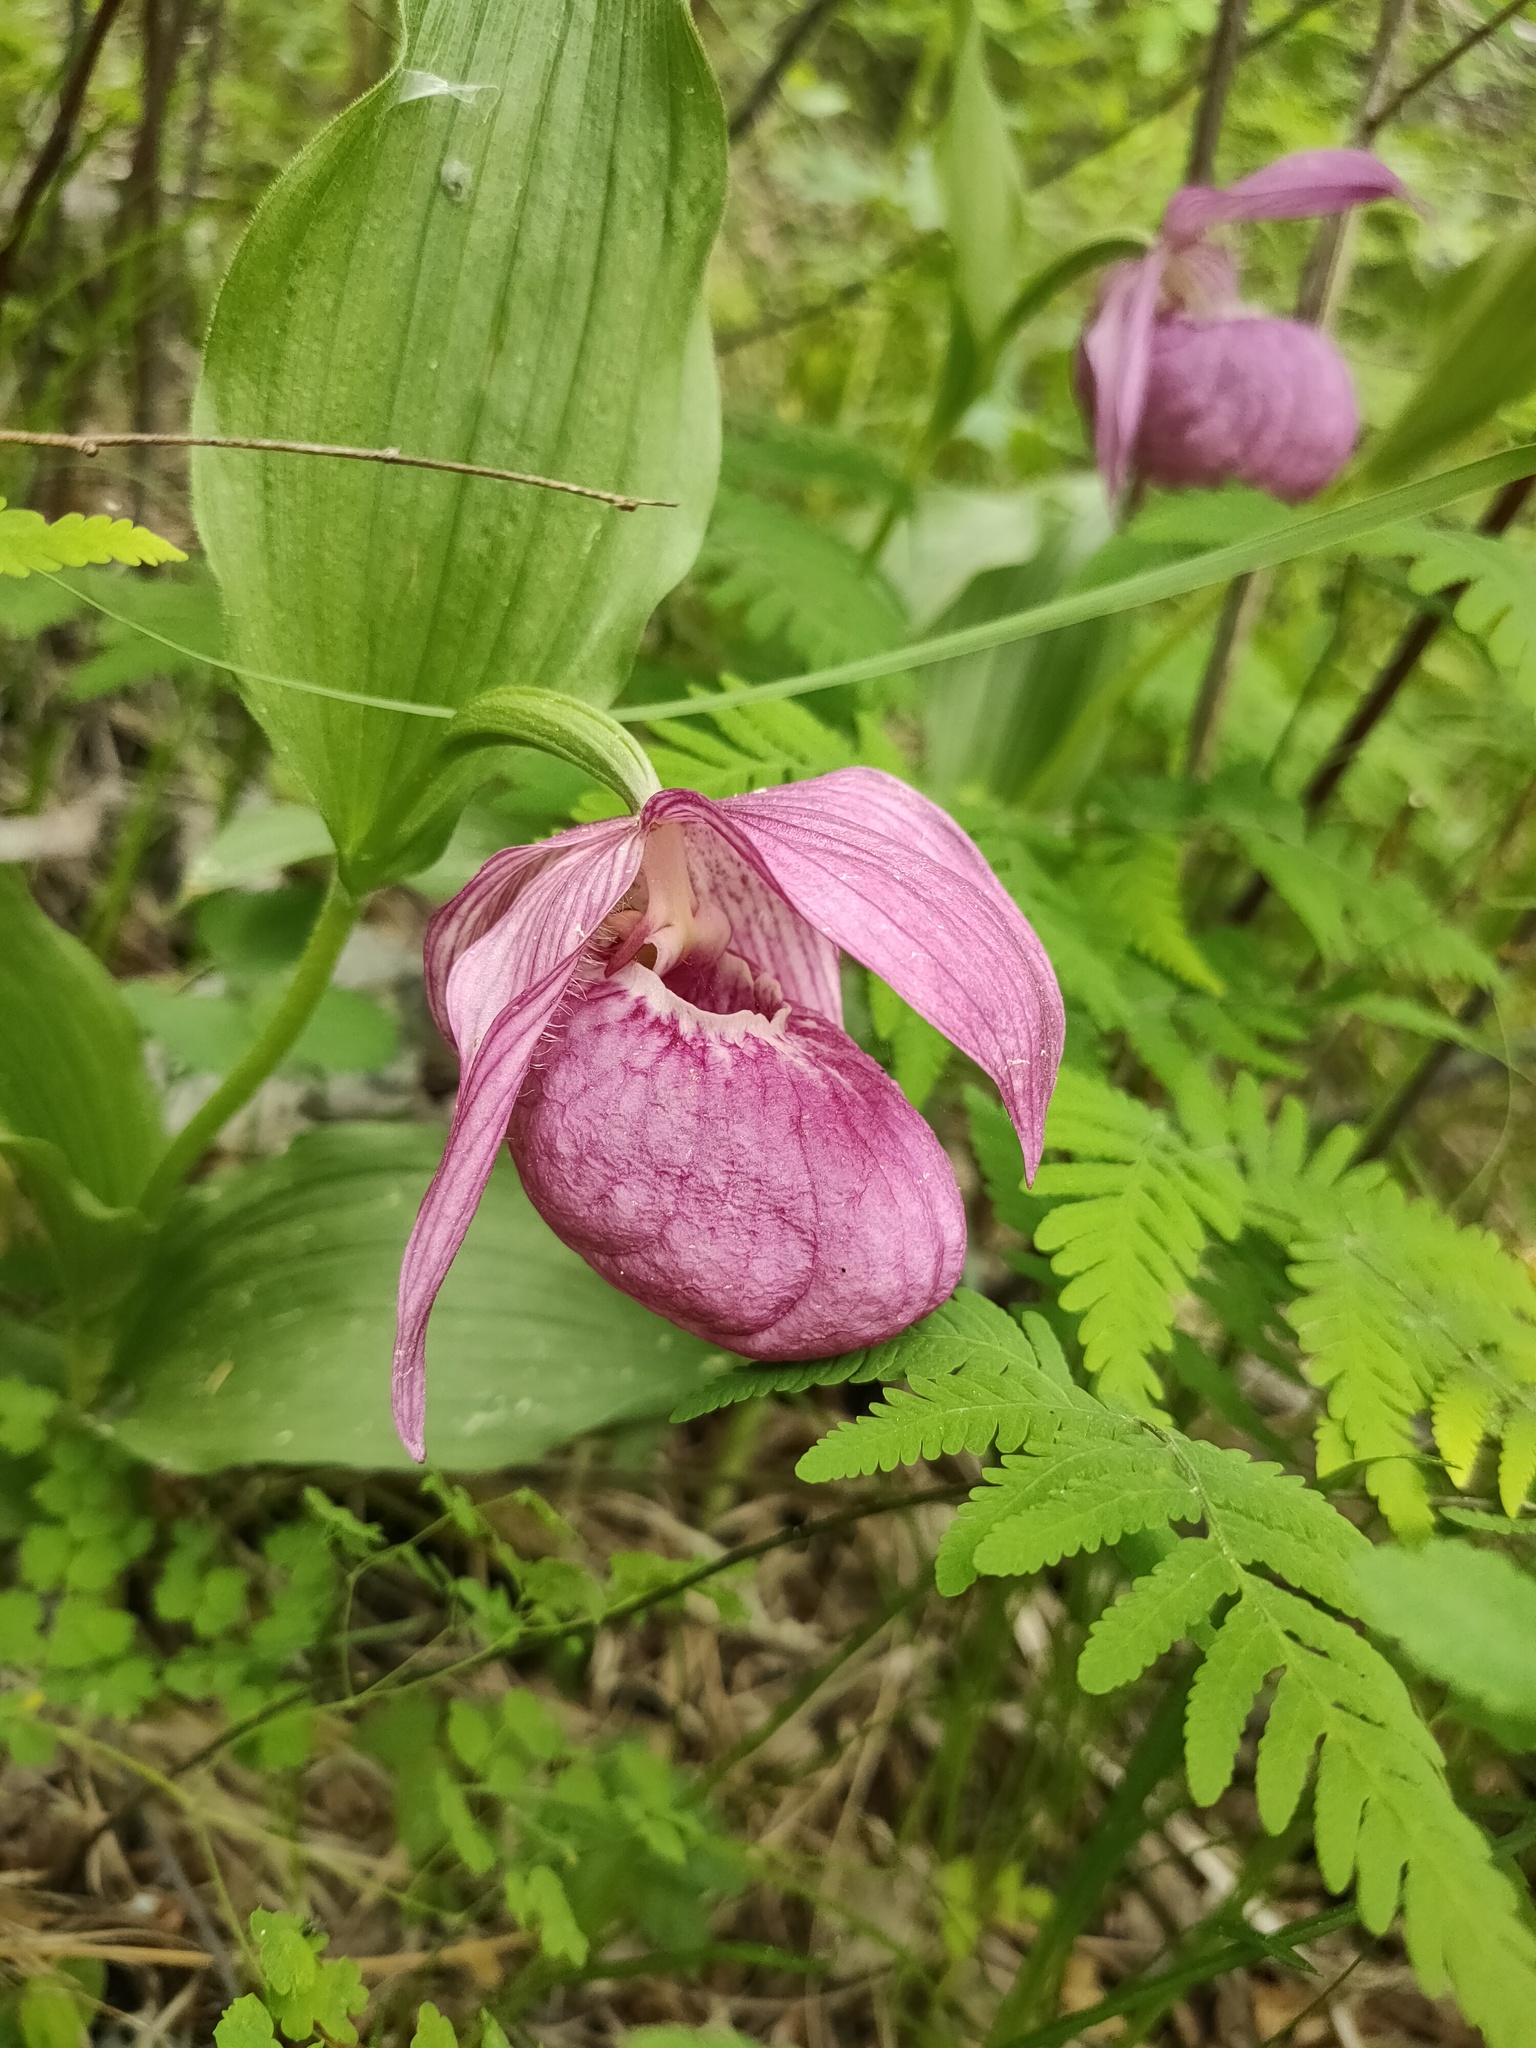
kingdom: Plantae
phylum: Tracheophyta
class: Liliopsida
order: Asparagales
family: Orchidaceae
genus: Cypripedium
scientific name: Cypripedium macranthos
